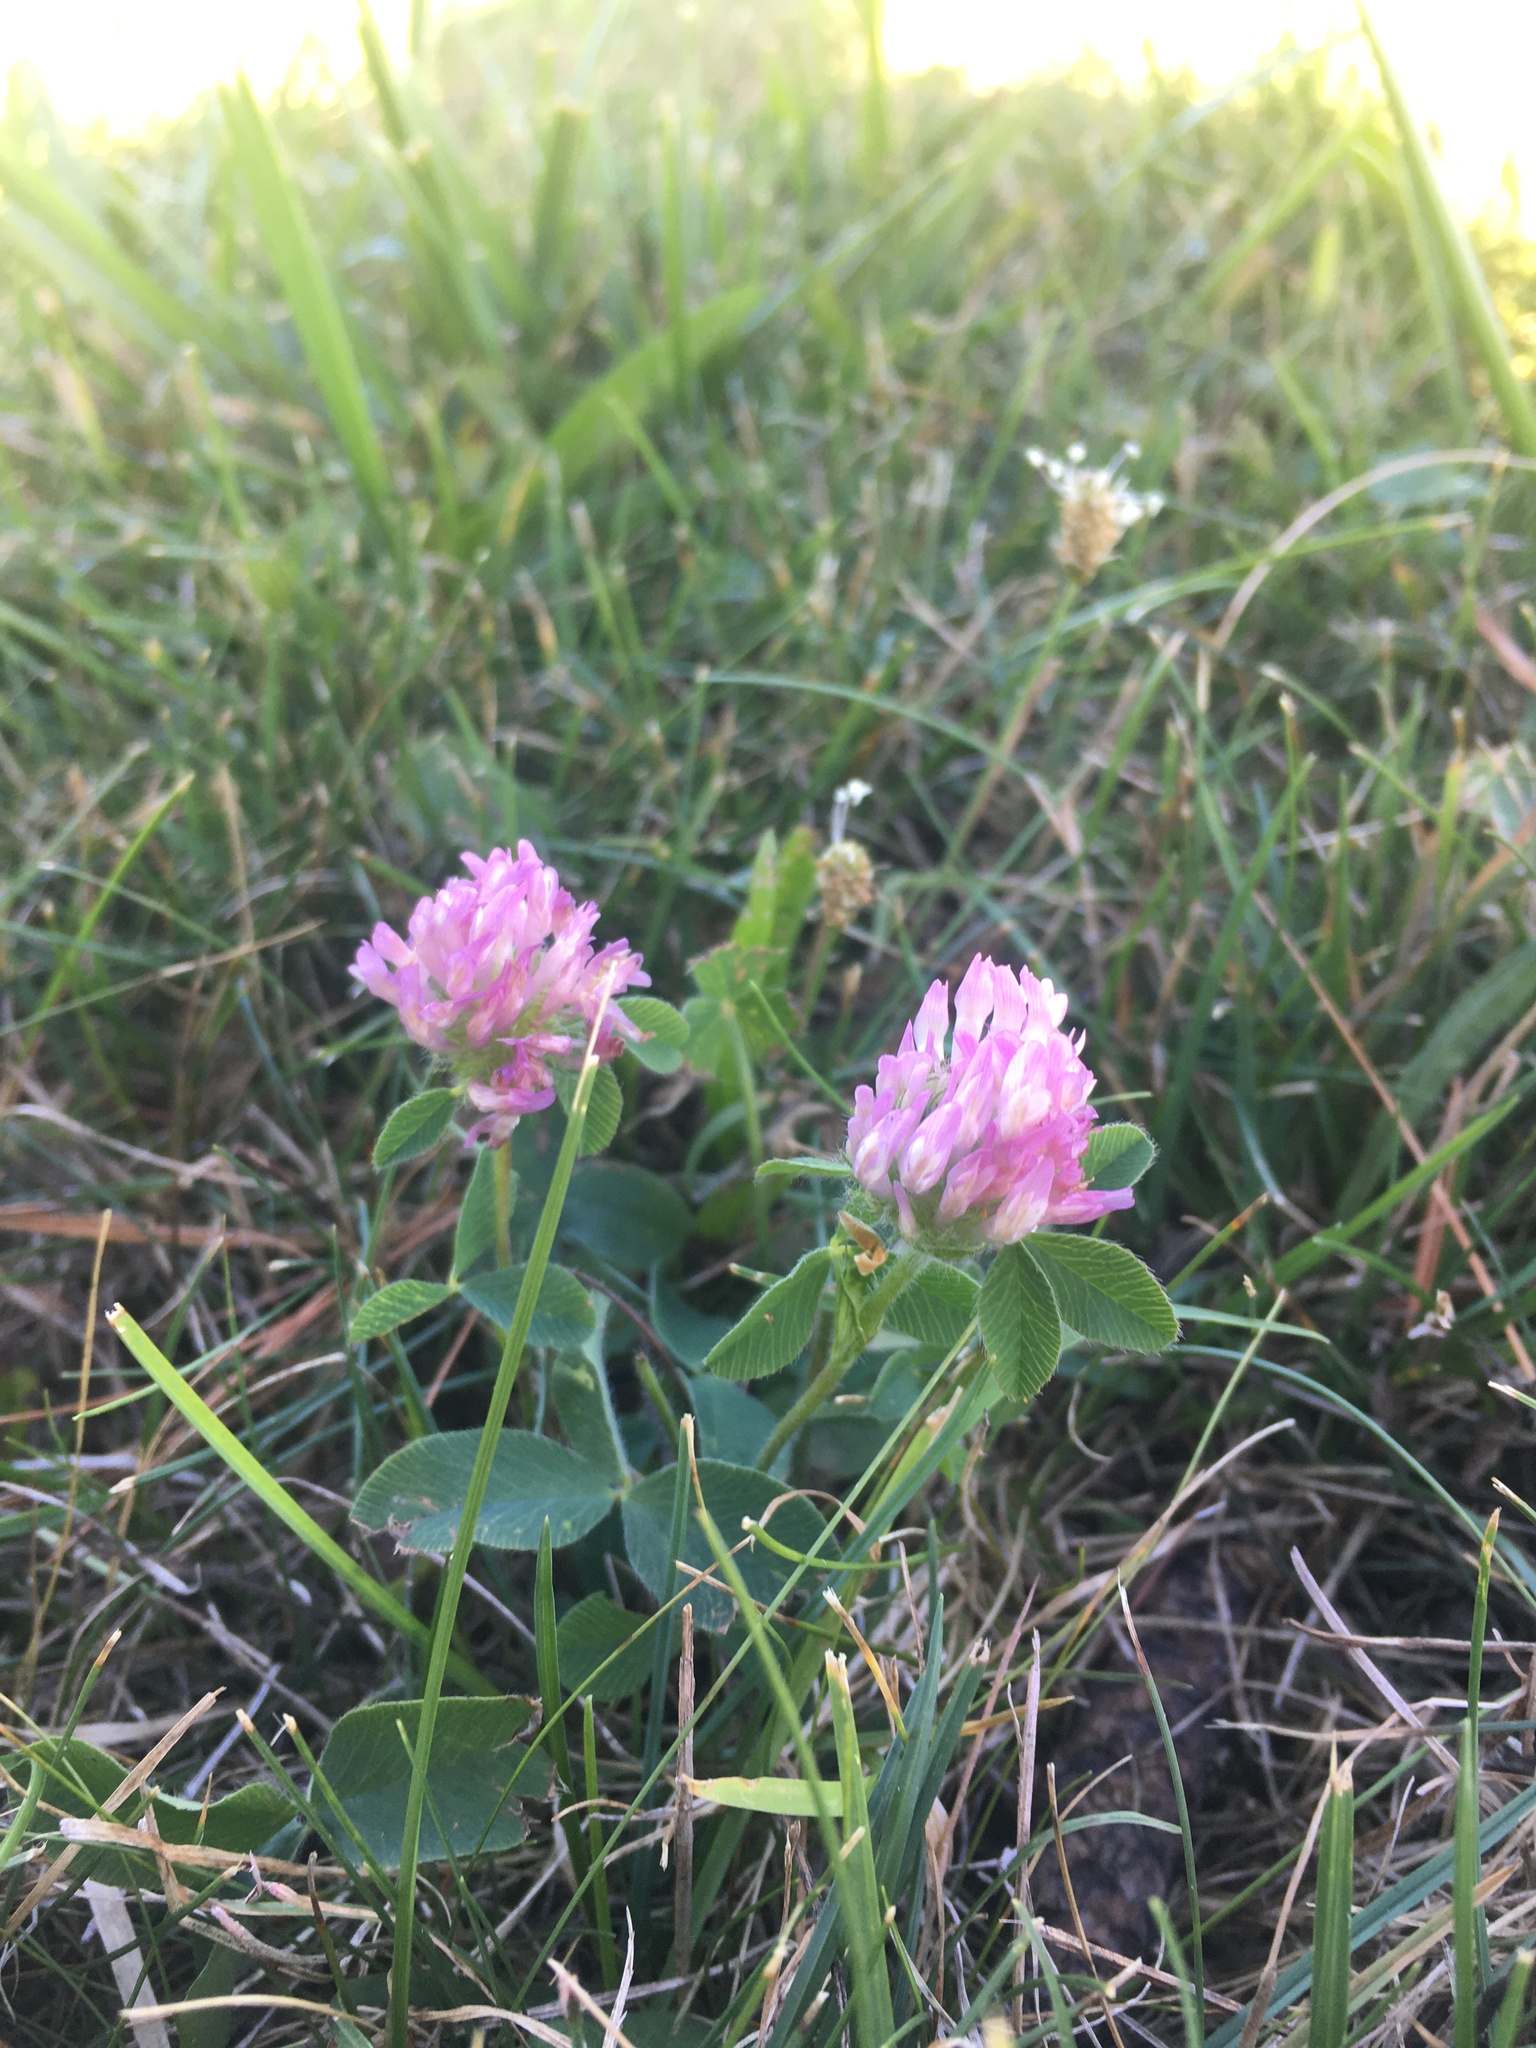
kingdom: Plantae
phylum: Tracheophyta
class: Magnoliopsida
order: Fabales
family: Fabaceae
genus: Trifolium
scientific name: Trifolium pratense
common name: Red clover
